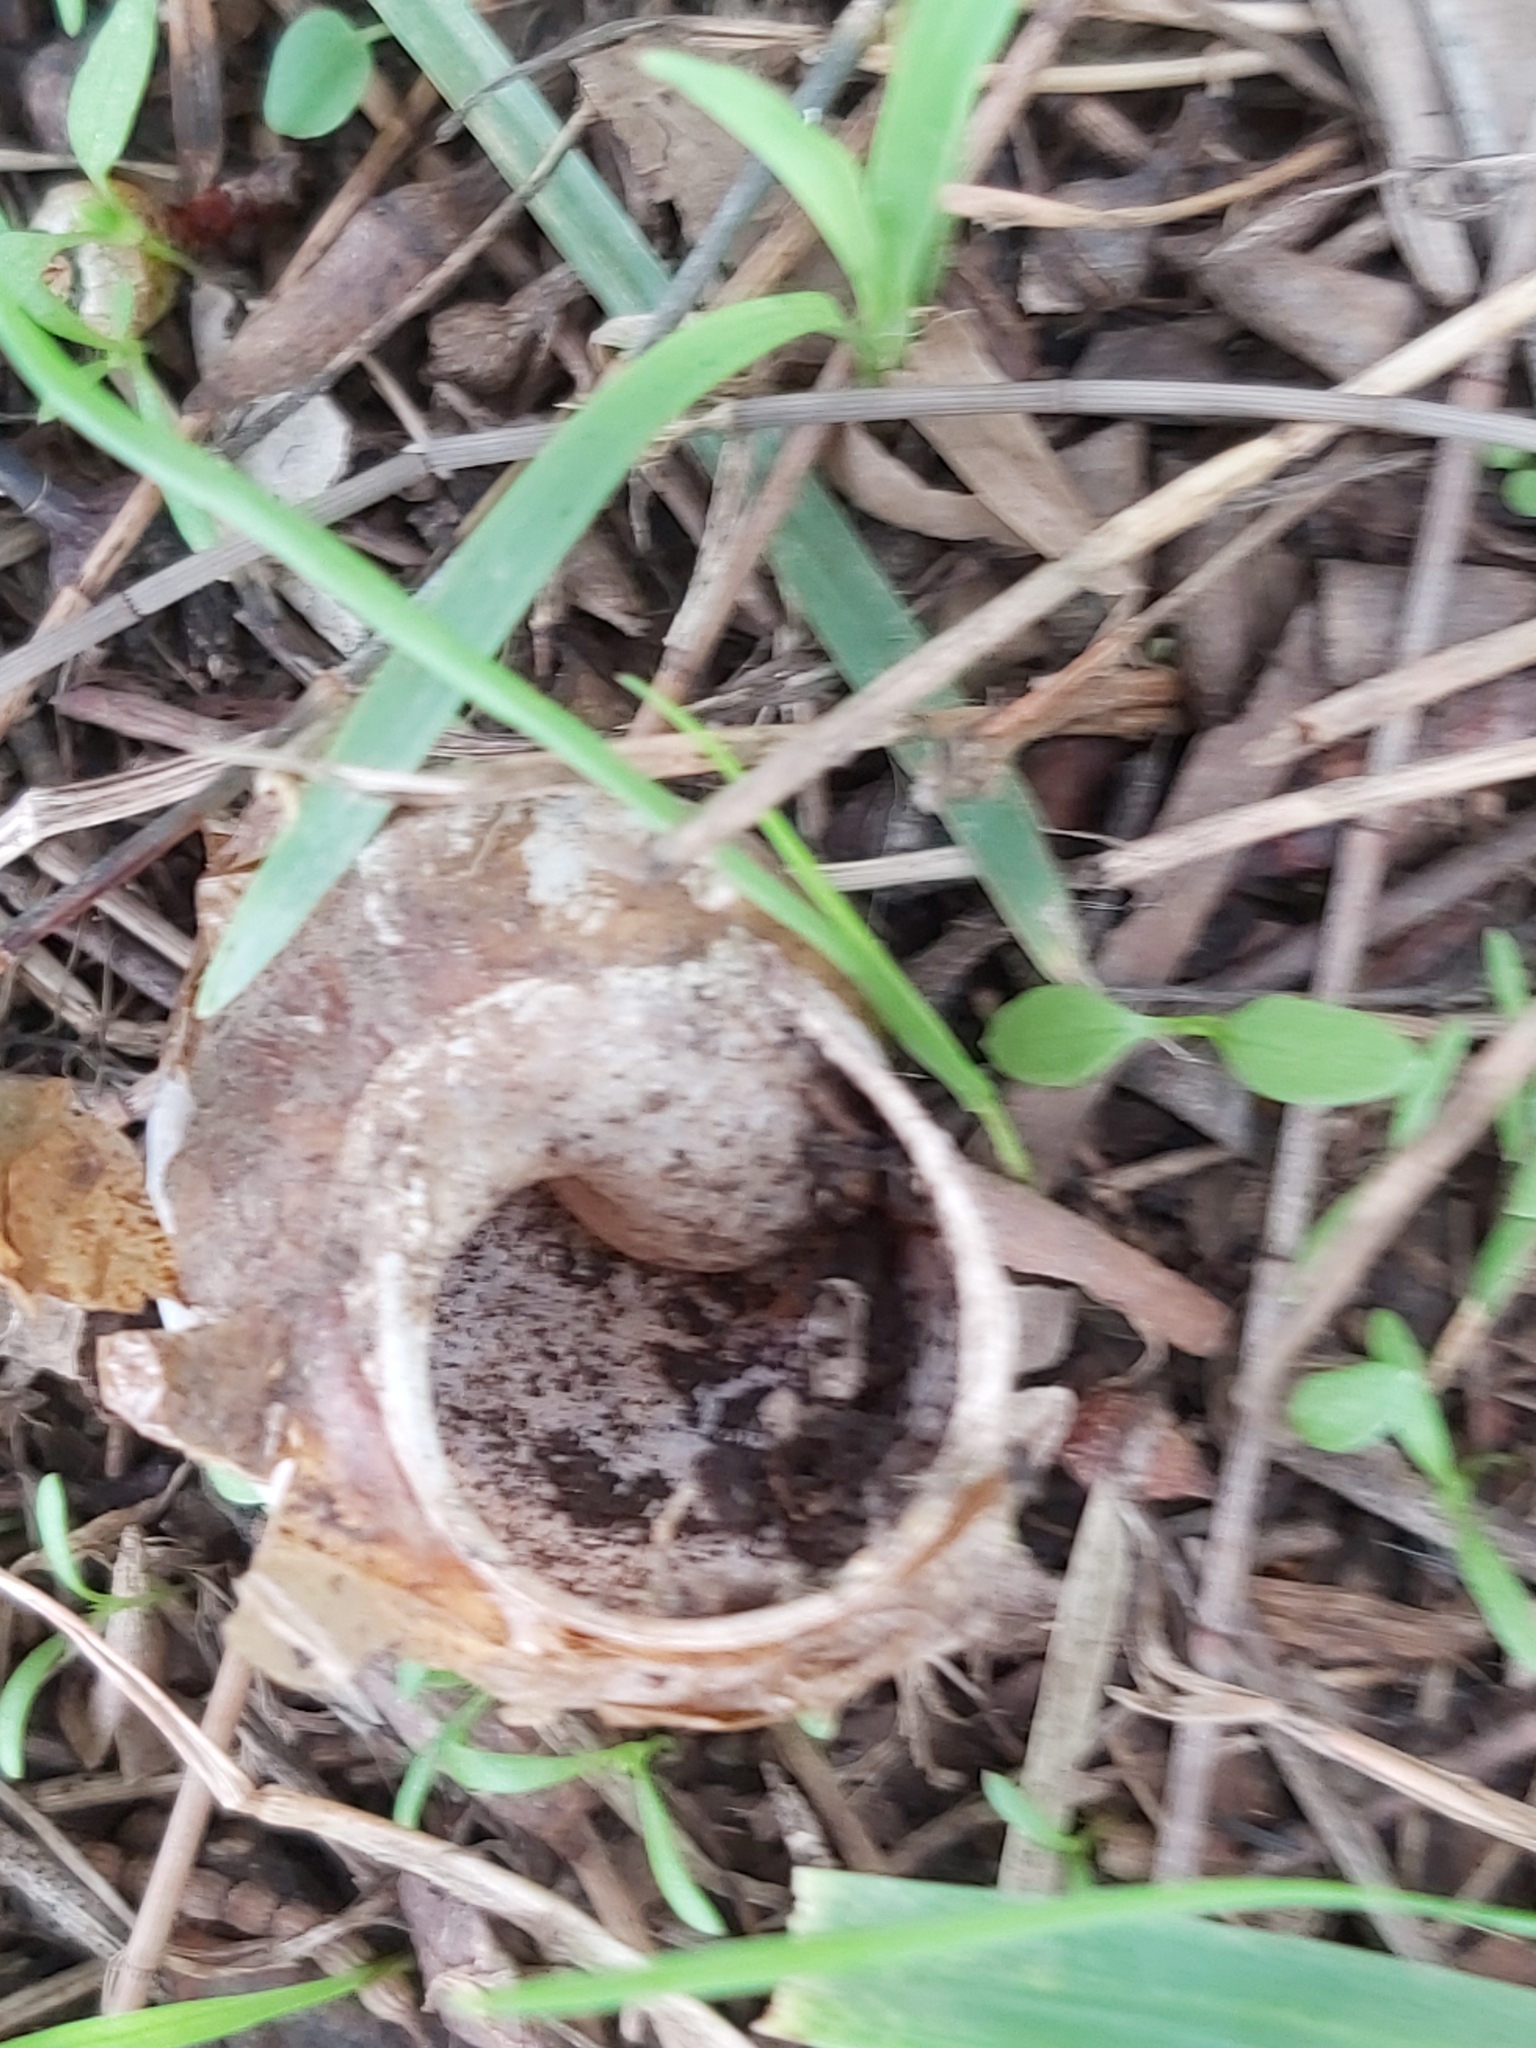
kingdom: Animalia
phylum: Mollusca
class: Gastropoda
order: Stylommatophora
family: Helicidae
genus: Cornu
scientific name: Cornu aspersum
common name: Brown garden snail
